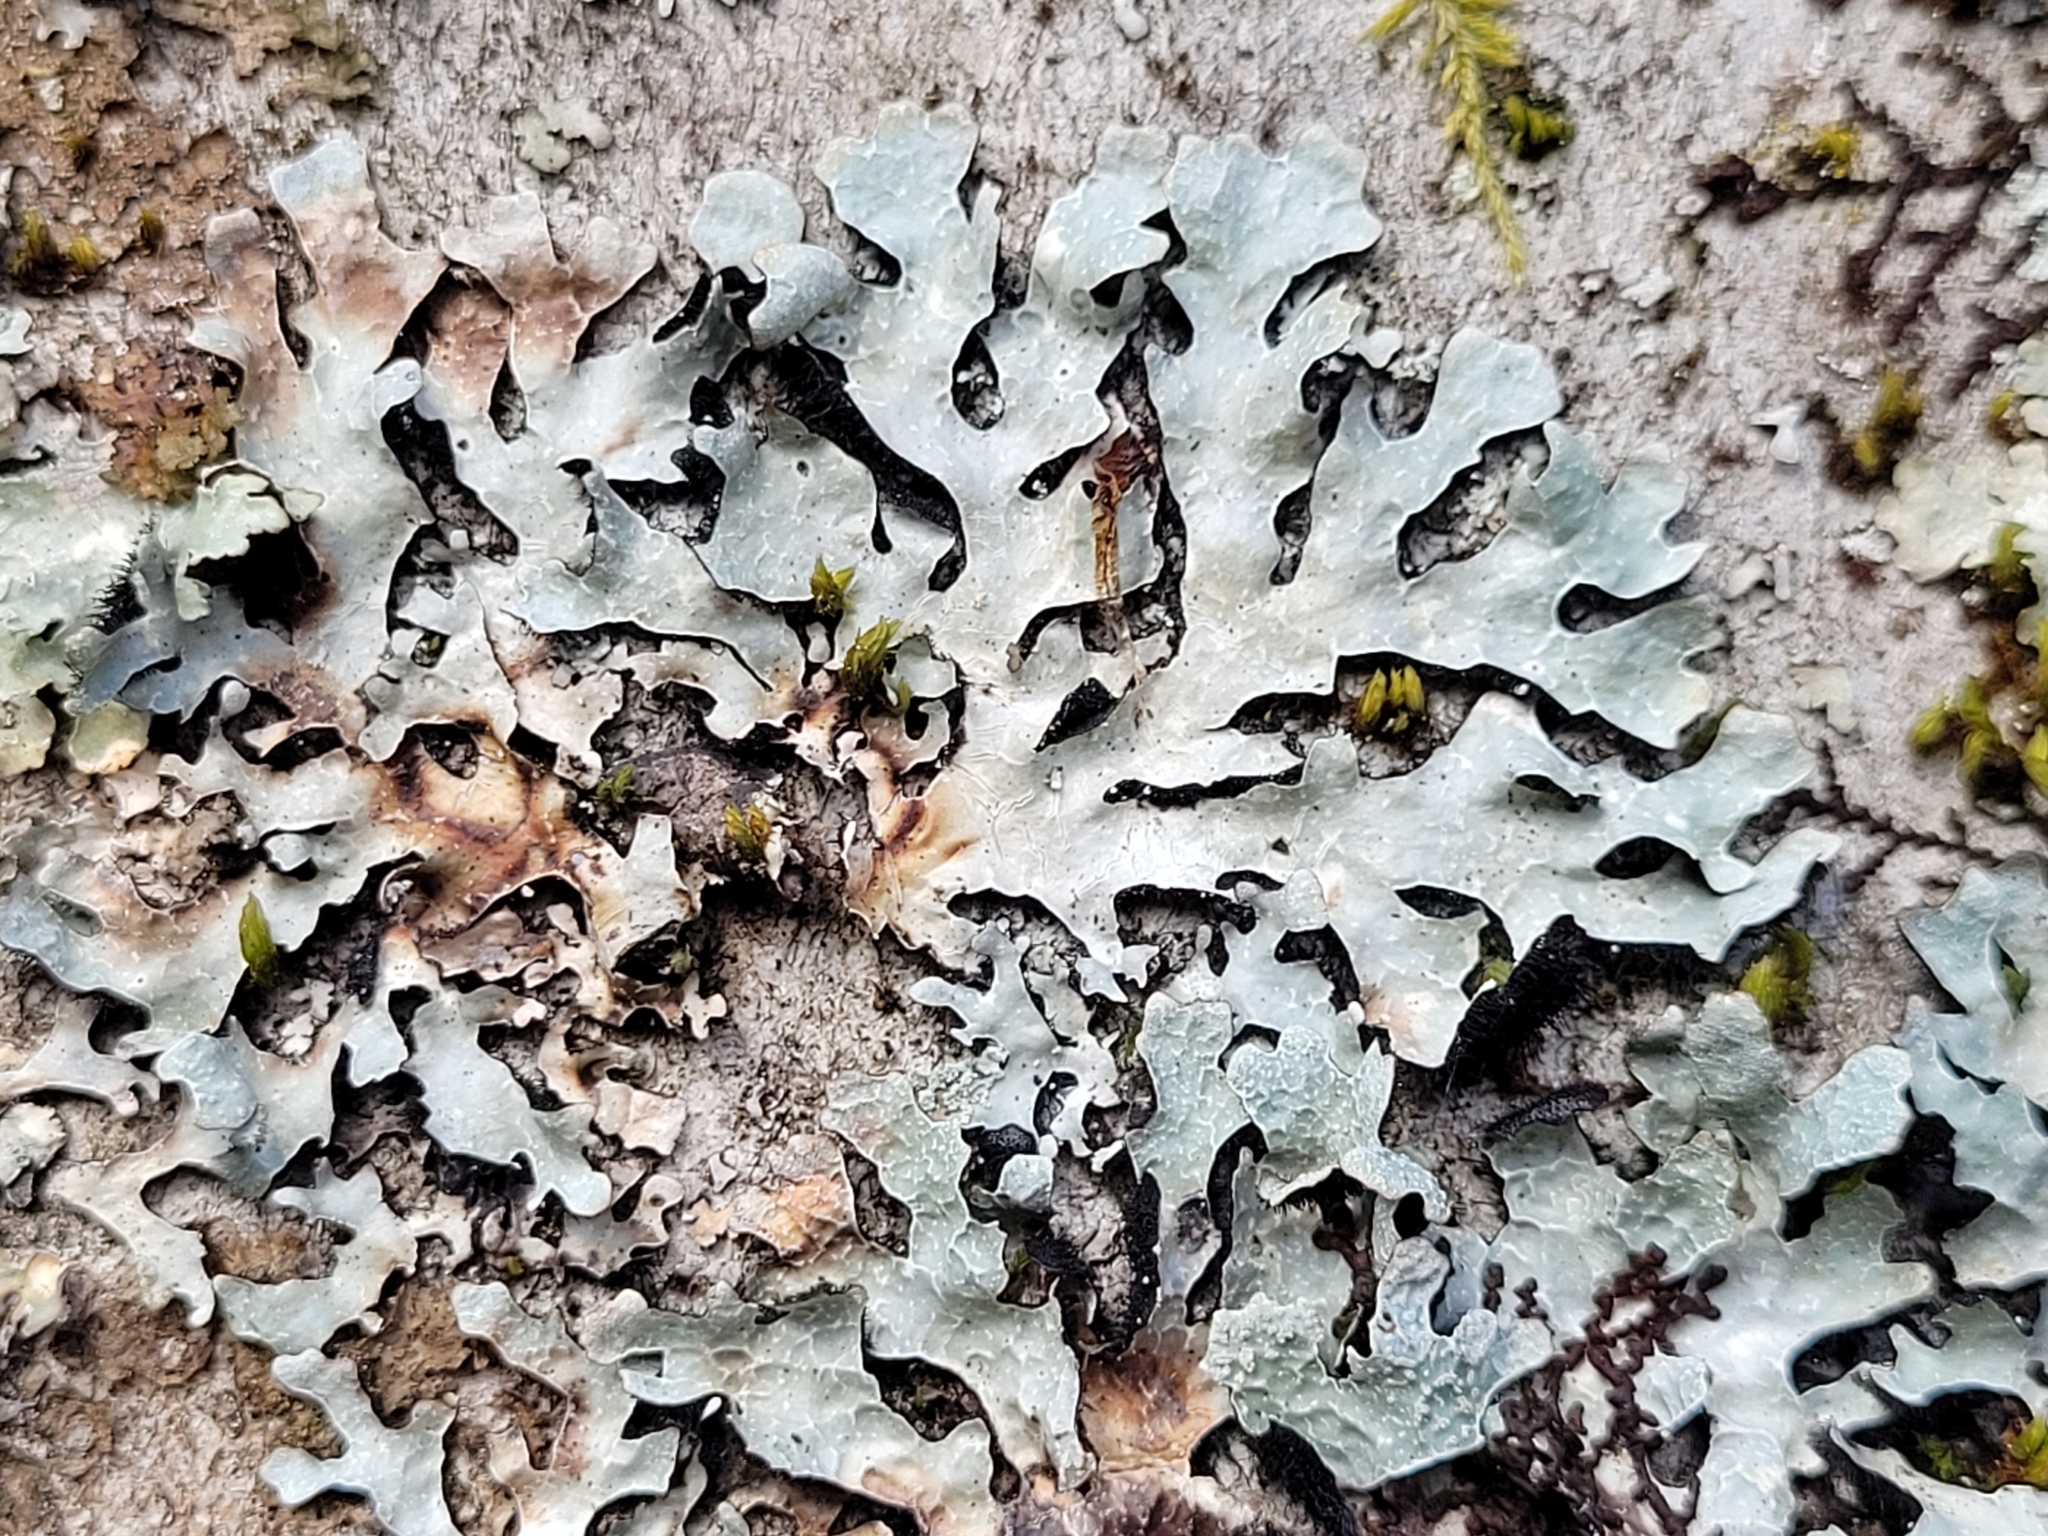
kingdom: Fungi
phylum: Ascomycota
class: Lecanoromycetes
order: Lecanorales
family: Parmeliaceae
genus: Parmelia
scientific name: Parmelia sulcata
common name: Netted shield lichen
